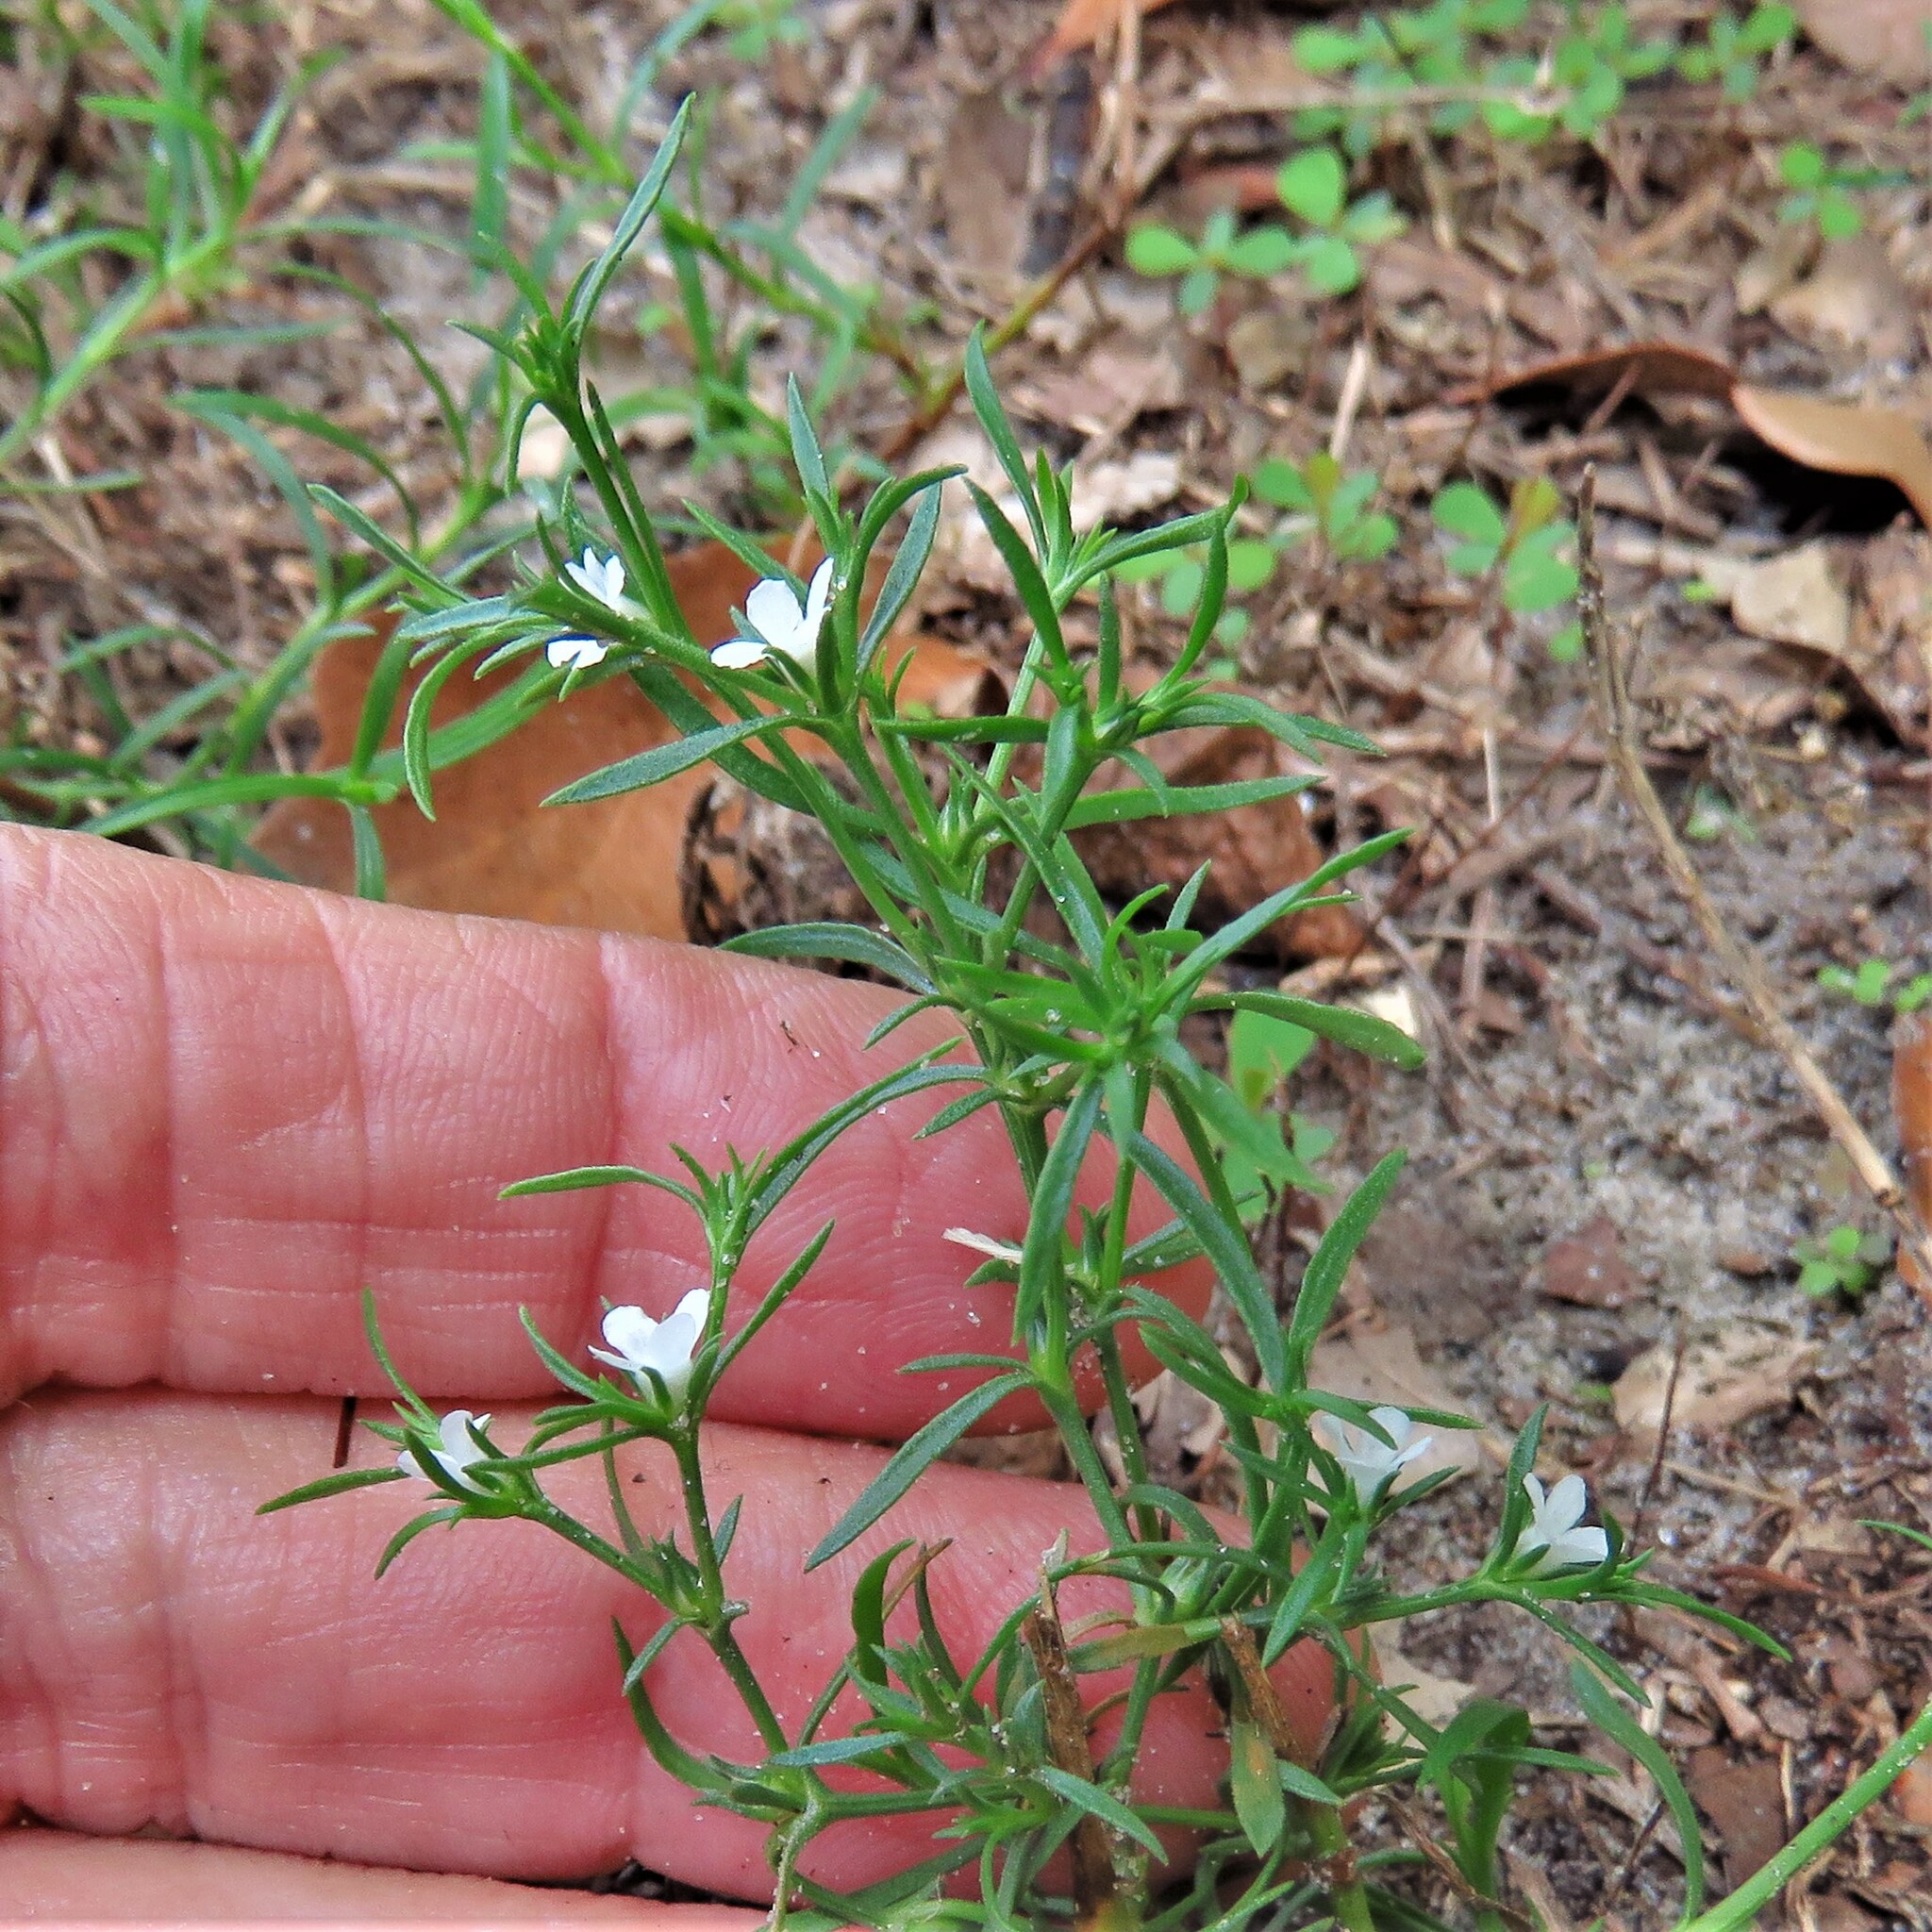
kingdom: Plantae
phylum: Tracheophyta
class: Magnoliopsida
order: Lamiales
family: Tetrachondraceae
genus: Polypremum
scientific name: Polypremum procumbens
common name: Juniper-leaf
